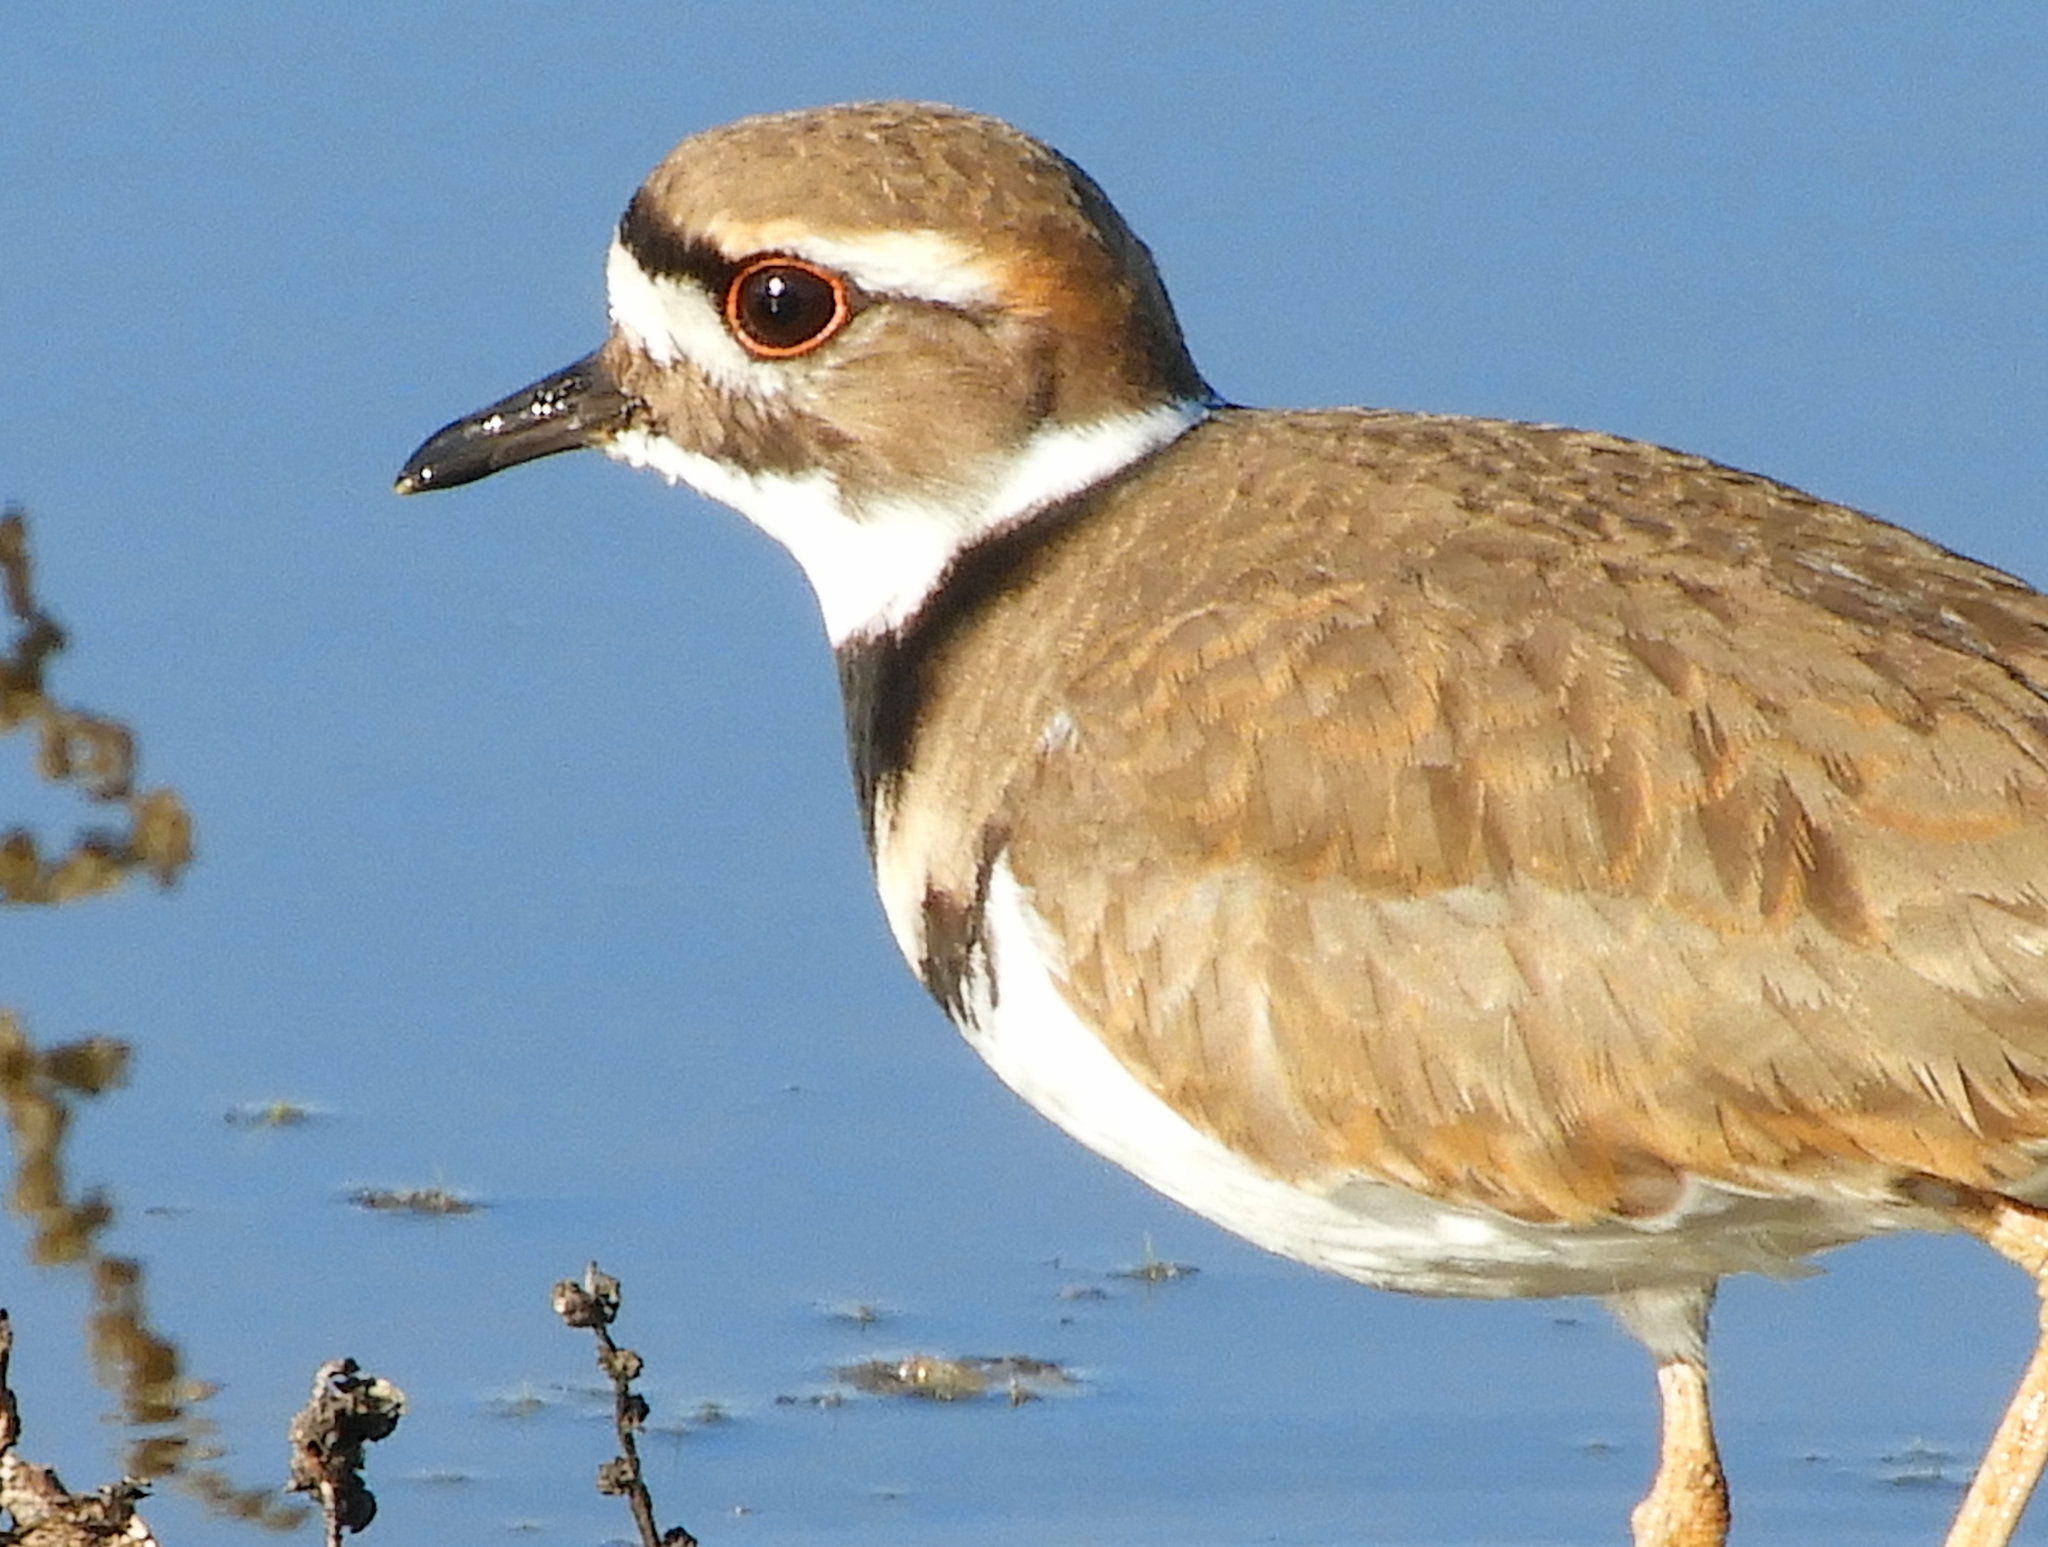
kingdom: Animalia
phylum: Chordata
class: Aves
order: Charadriiformes
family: Charadriidae
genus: Charadrius
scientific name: Charadrius vociferus
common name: Killdeer
